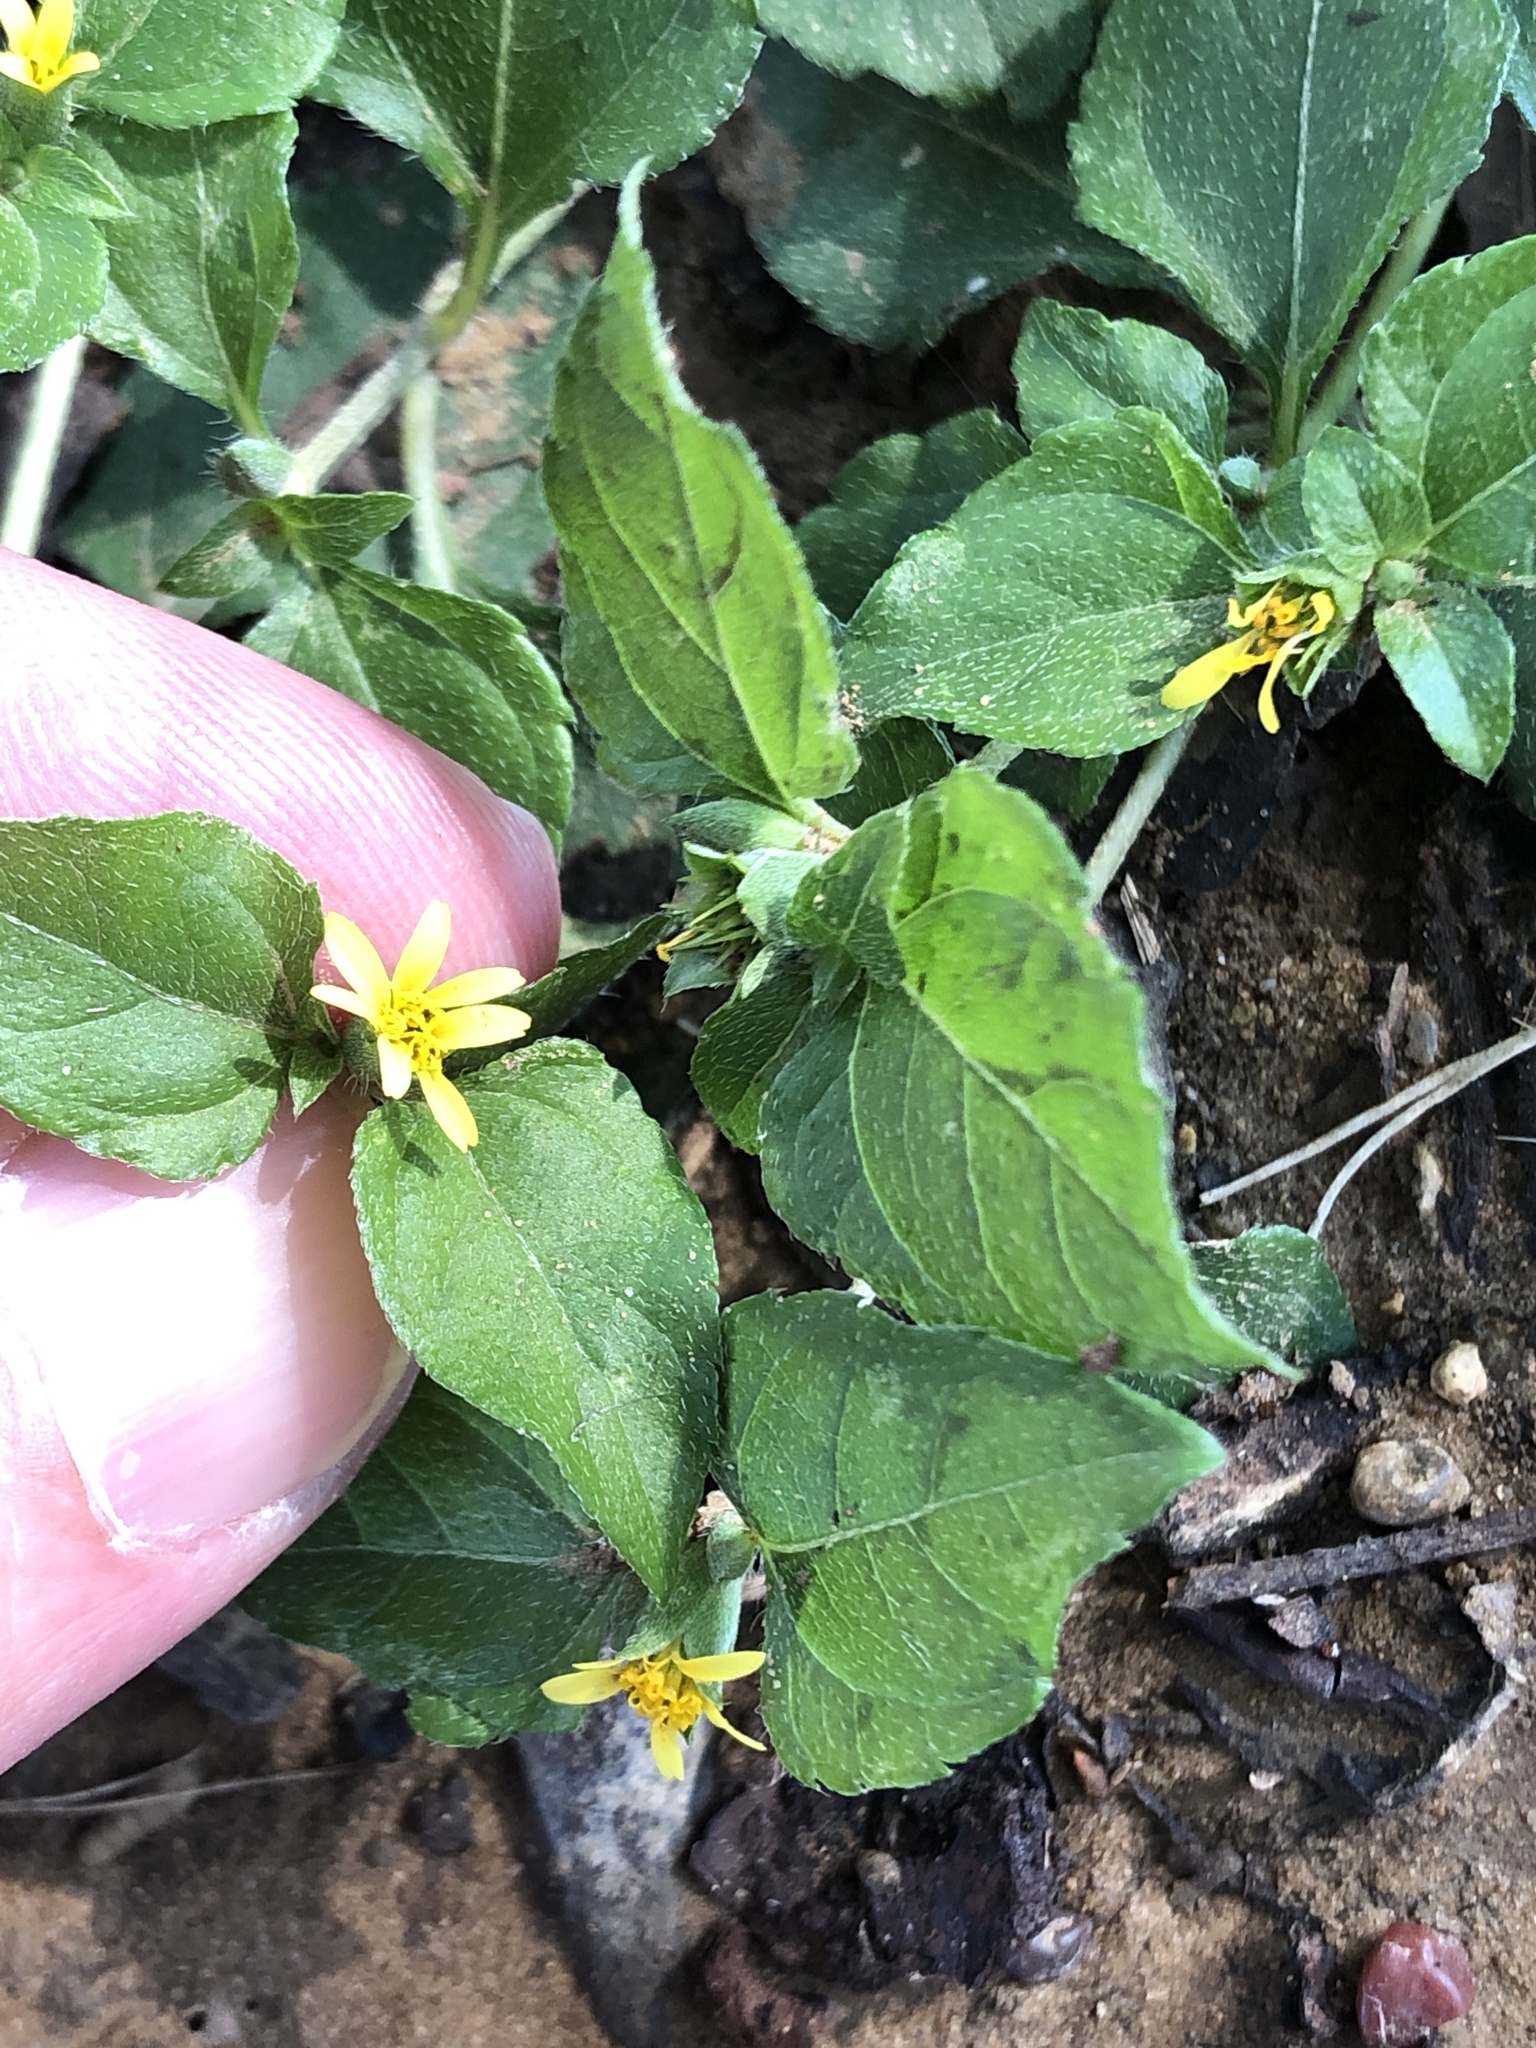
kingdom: Plantae
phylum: Tracheophyta
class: Magnoliopsida
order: Asterales
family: Asteraceae
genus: Calyptocarpus
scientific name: Calyptocarpus vialis
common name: Straggler daisy
